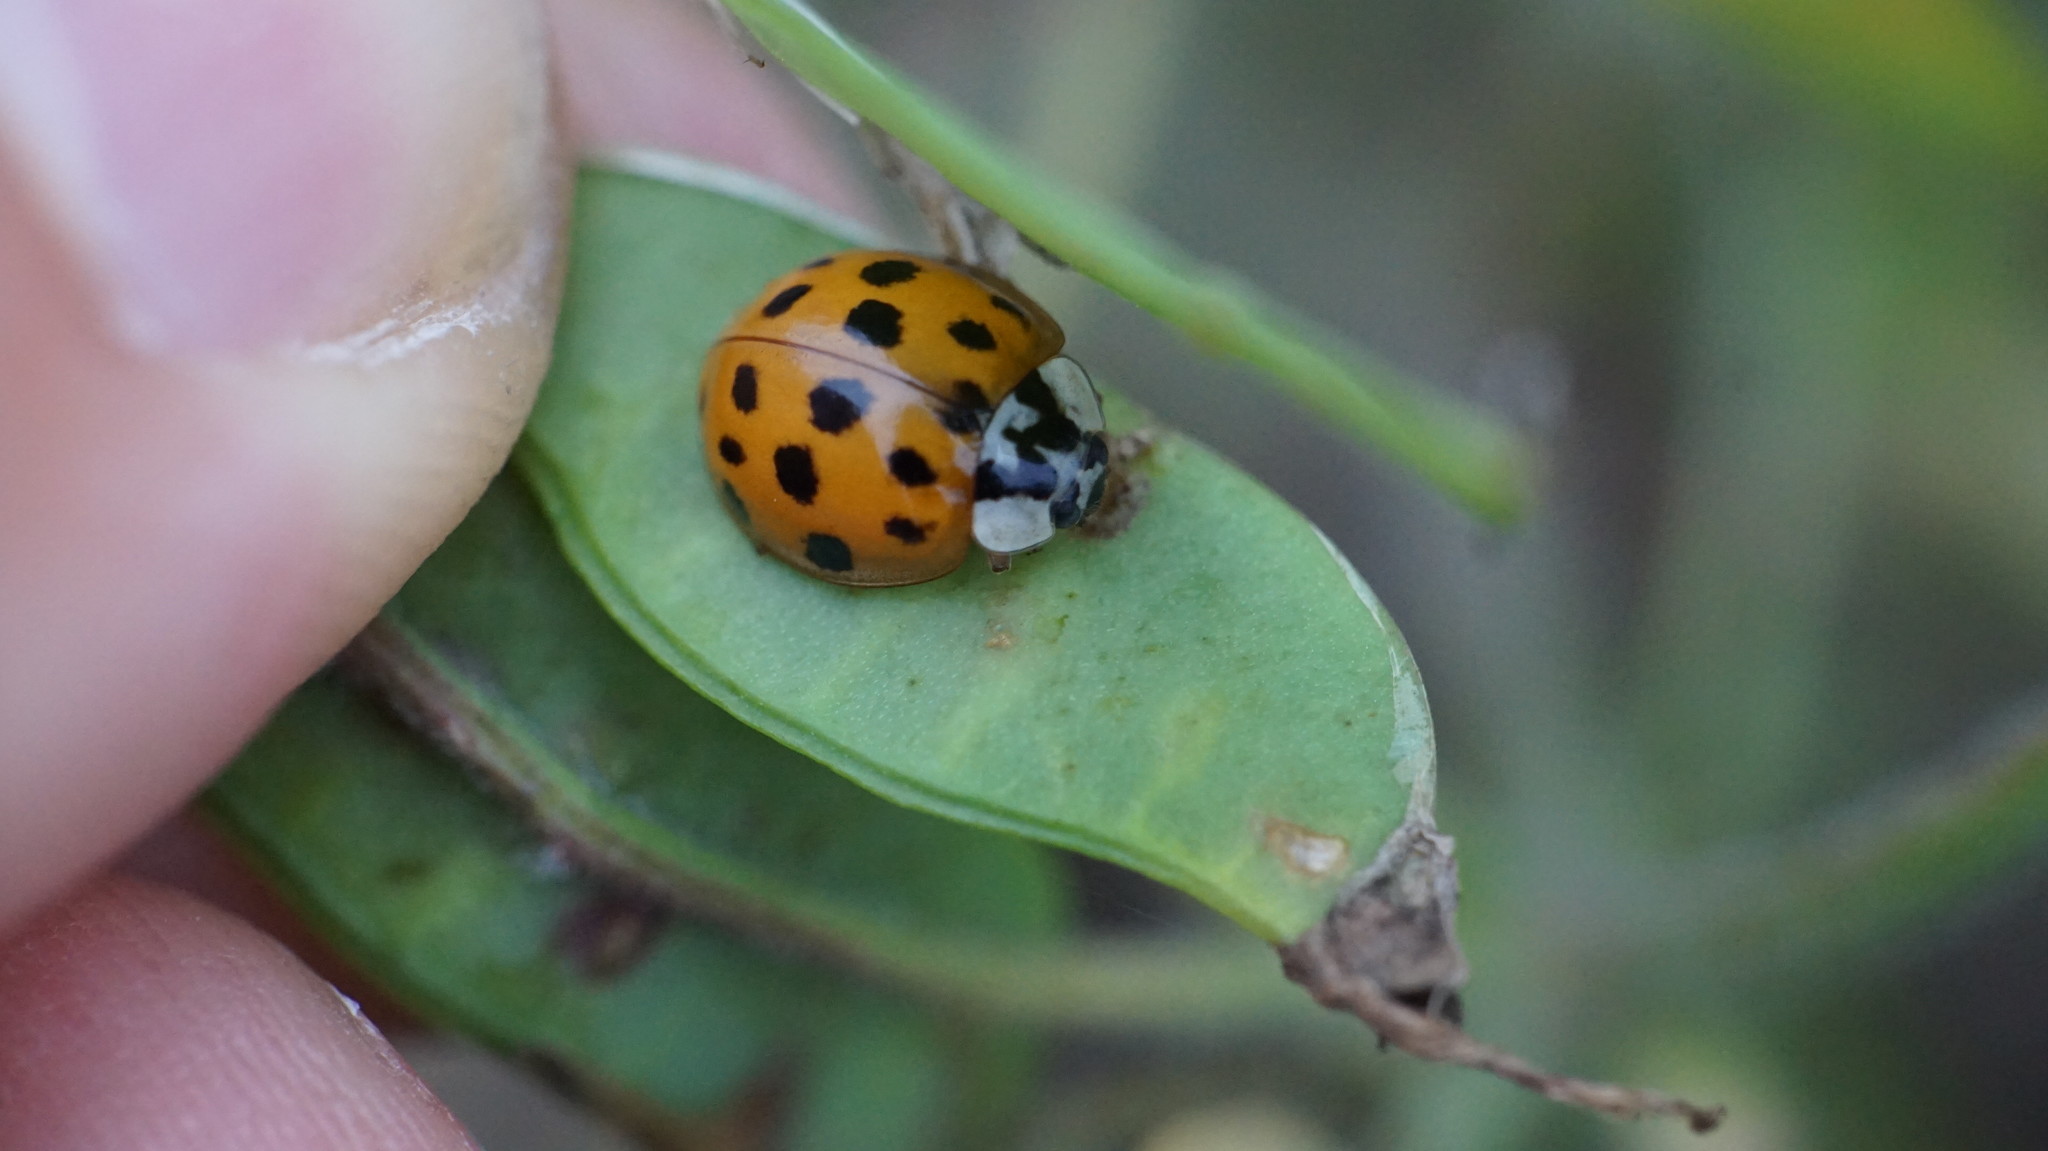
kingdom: Animalia
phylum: Arthropoda
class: Insecta
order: Coleoptera
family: Coccinellidae
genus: Harmonia
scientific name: Harmonia axyridis
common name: Harlequin ladybird
